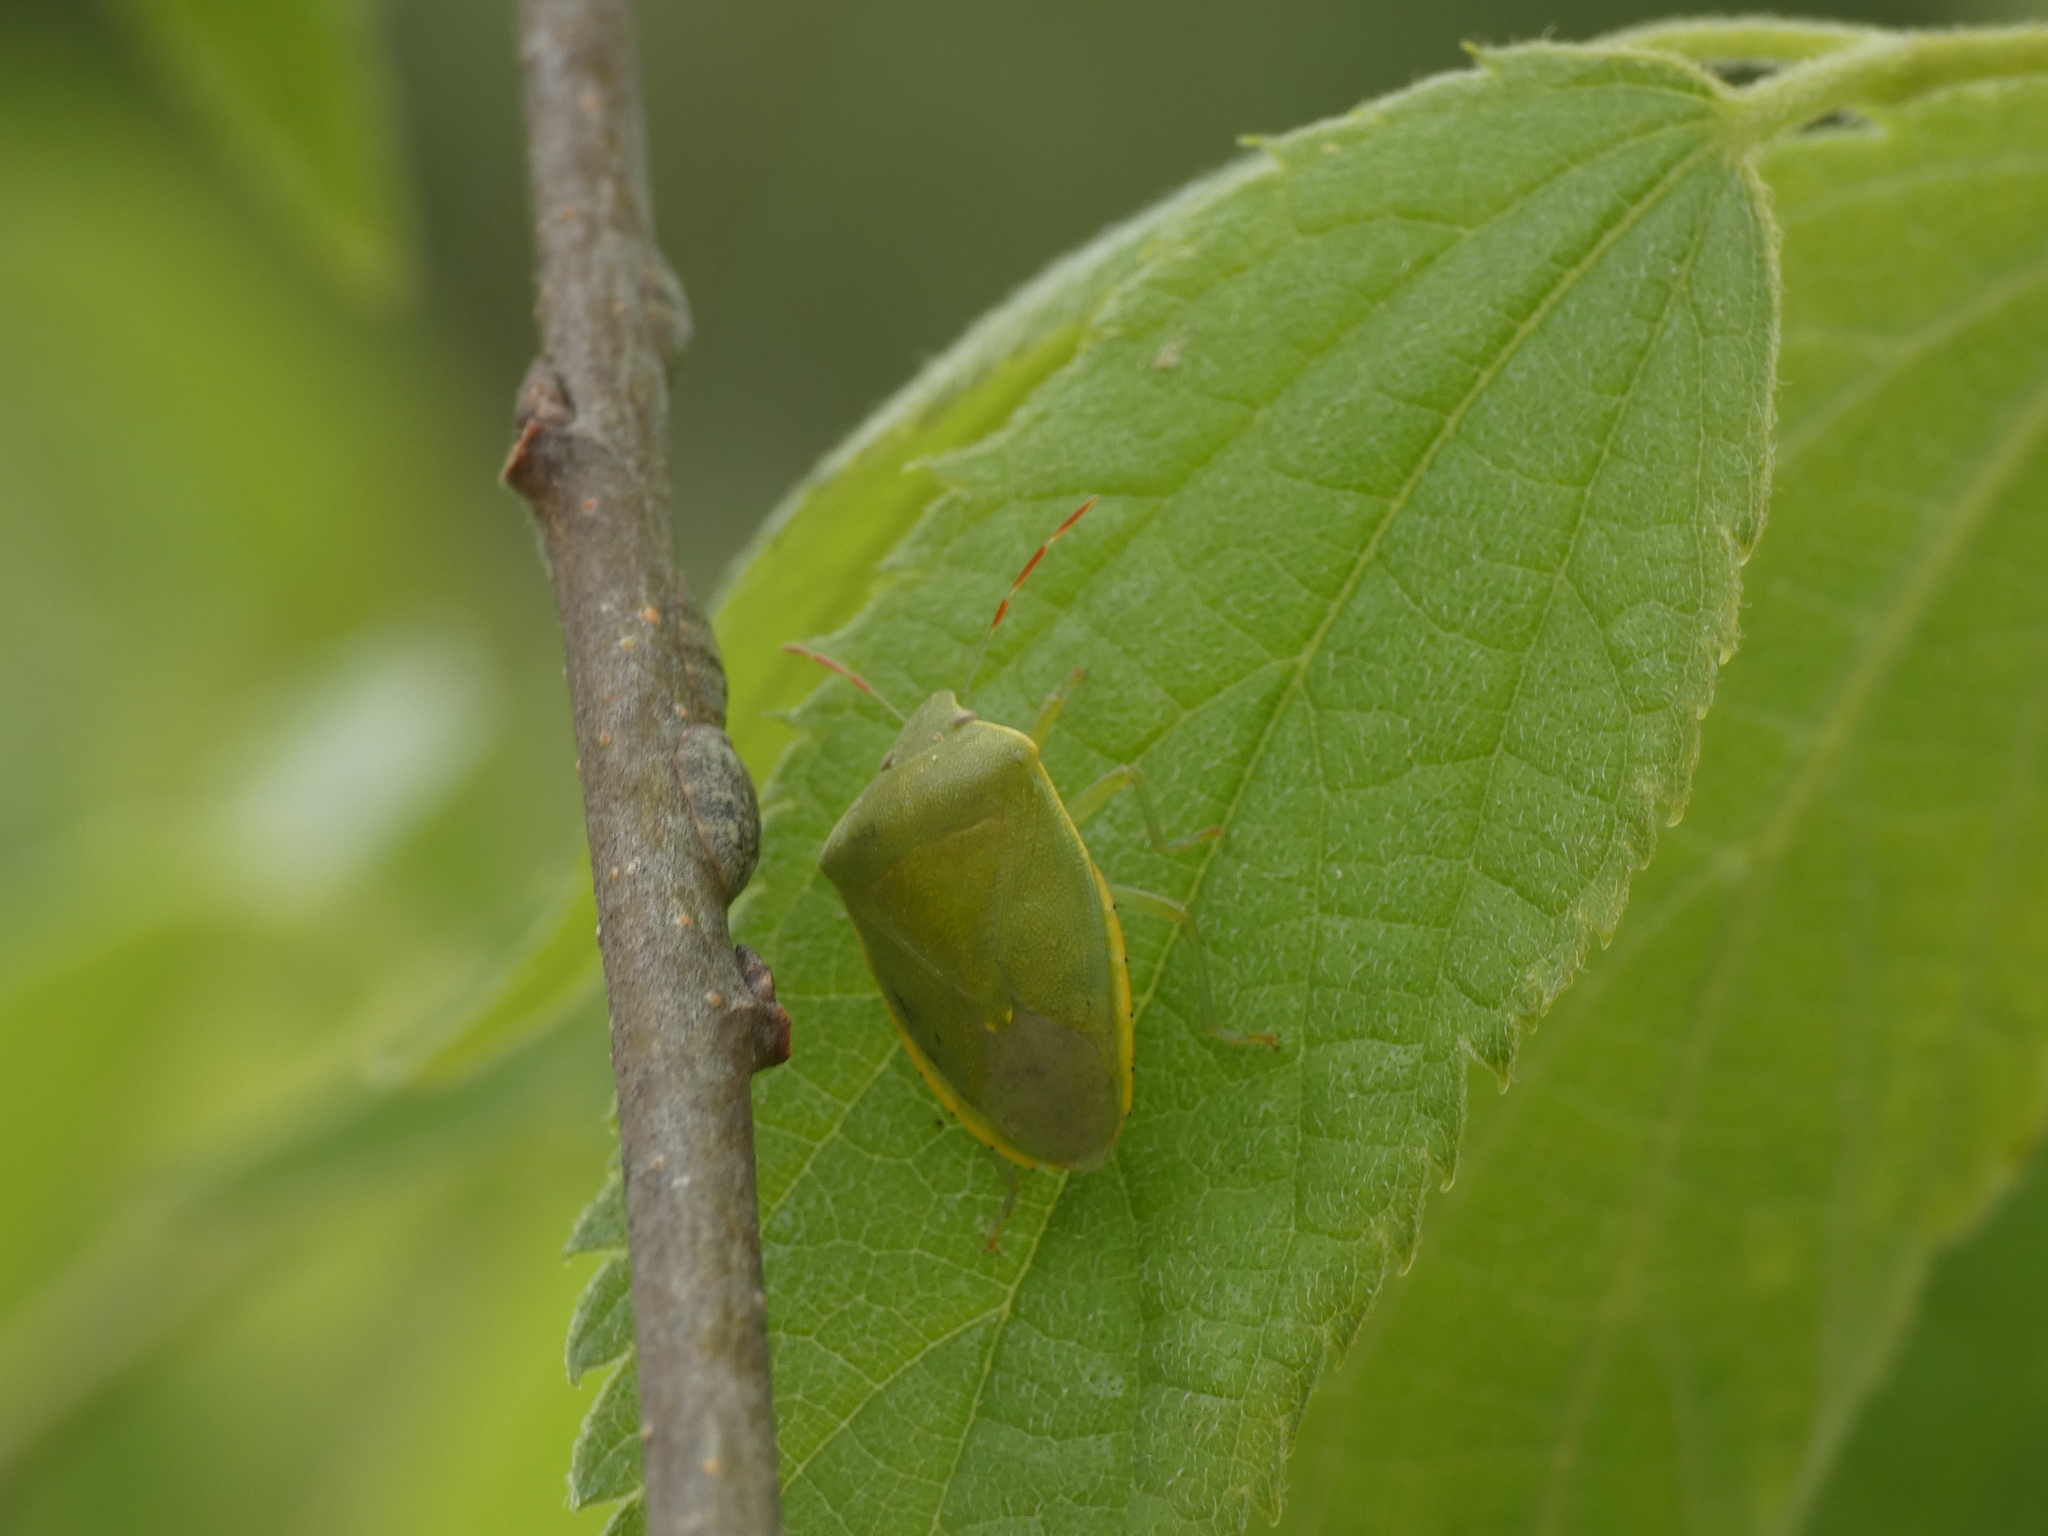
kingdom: Animalia
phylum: Arthropoda
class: Insecta
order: Hemiptera
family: Pentatomidae
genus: Acrosternum
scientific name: Acrosternum heegeri
